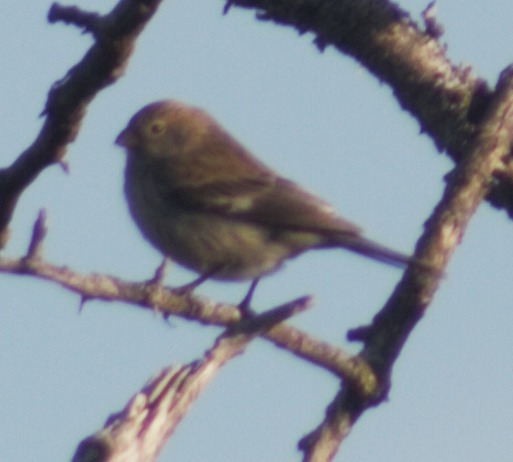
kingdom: Animalia
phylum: Chordata
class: Aves
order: Passeriformes
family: Thraupidae
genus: Catamenia
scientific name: Catamenia analis
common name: Band-tailed seedeater
